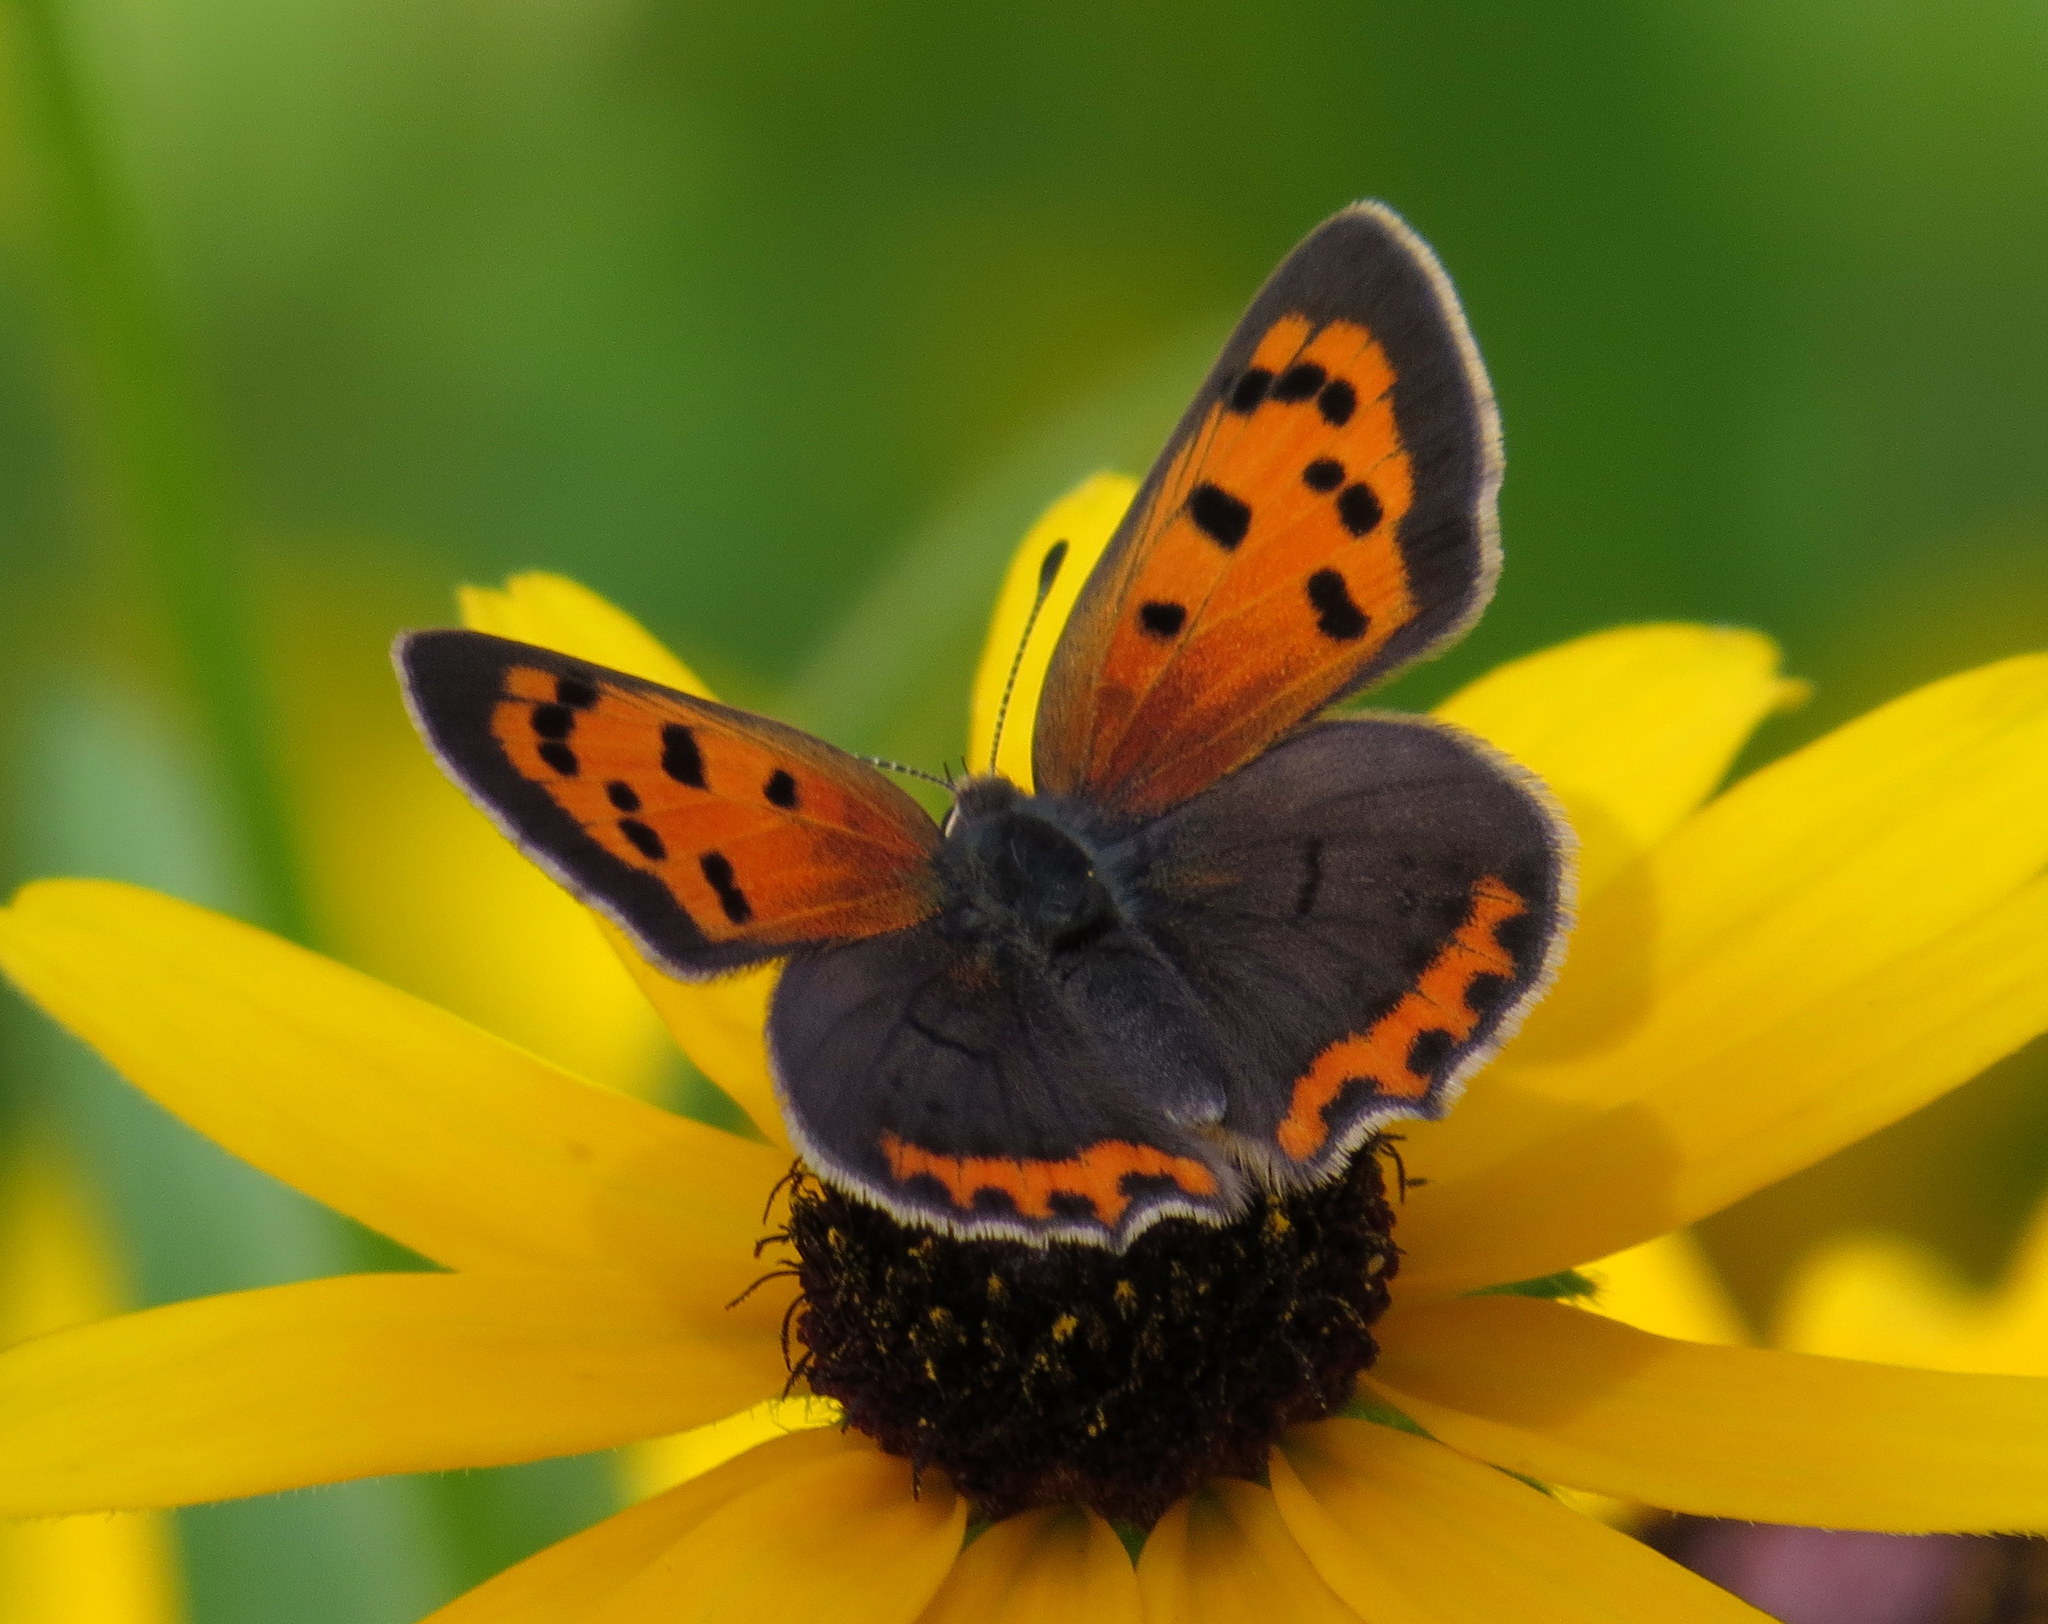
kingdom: Animalia
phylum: Arthropoda
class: Insecta
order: Lepidoptera
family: Lycaenidae
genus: Lycaena
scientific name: Lycaena hypophlaeas
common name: American copper
